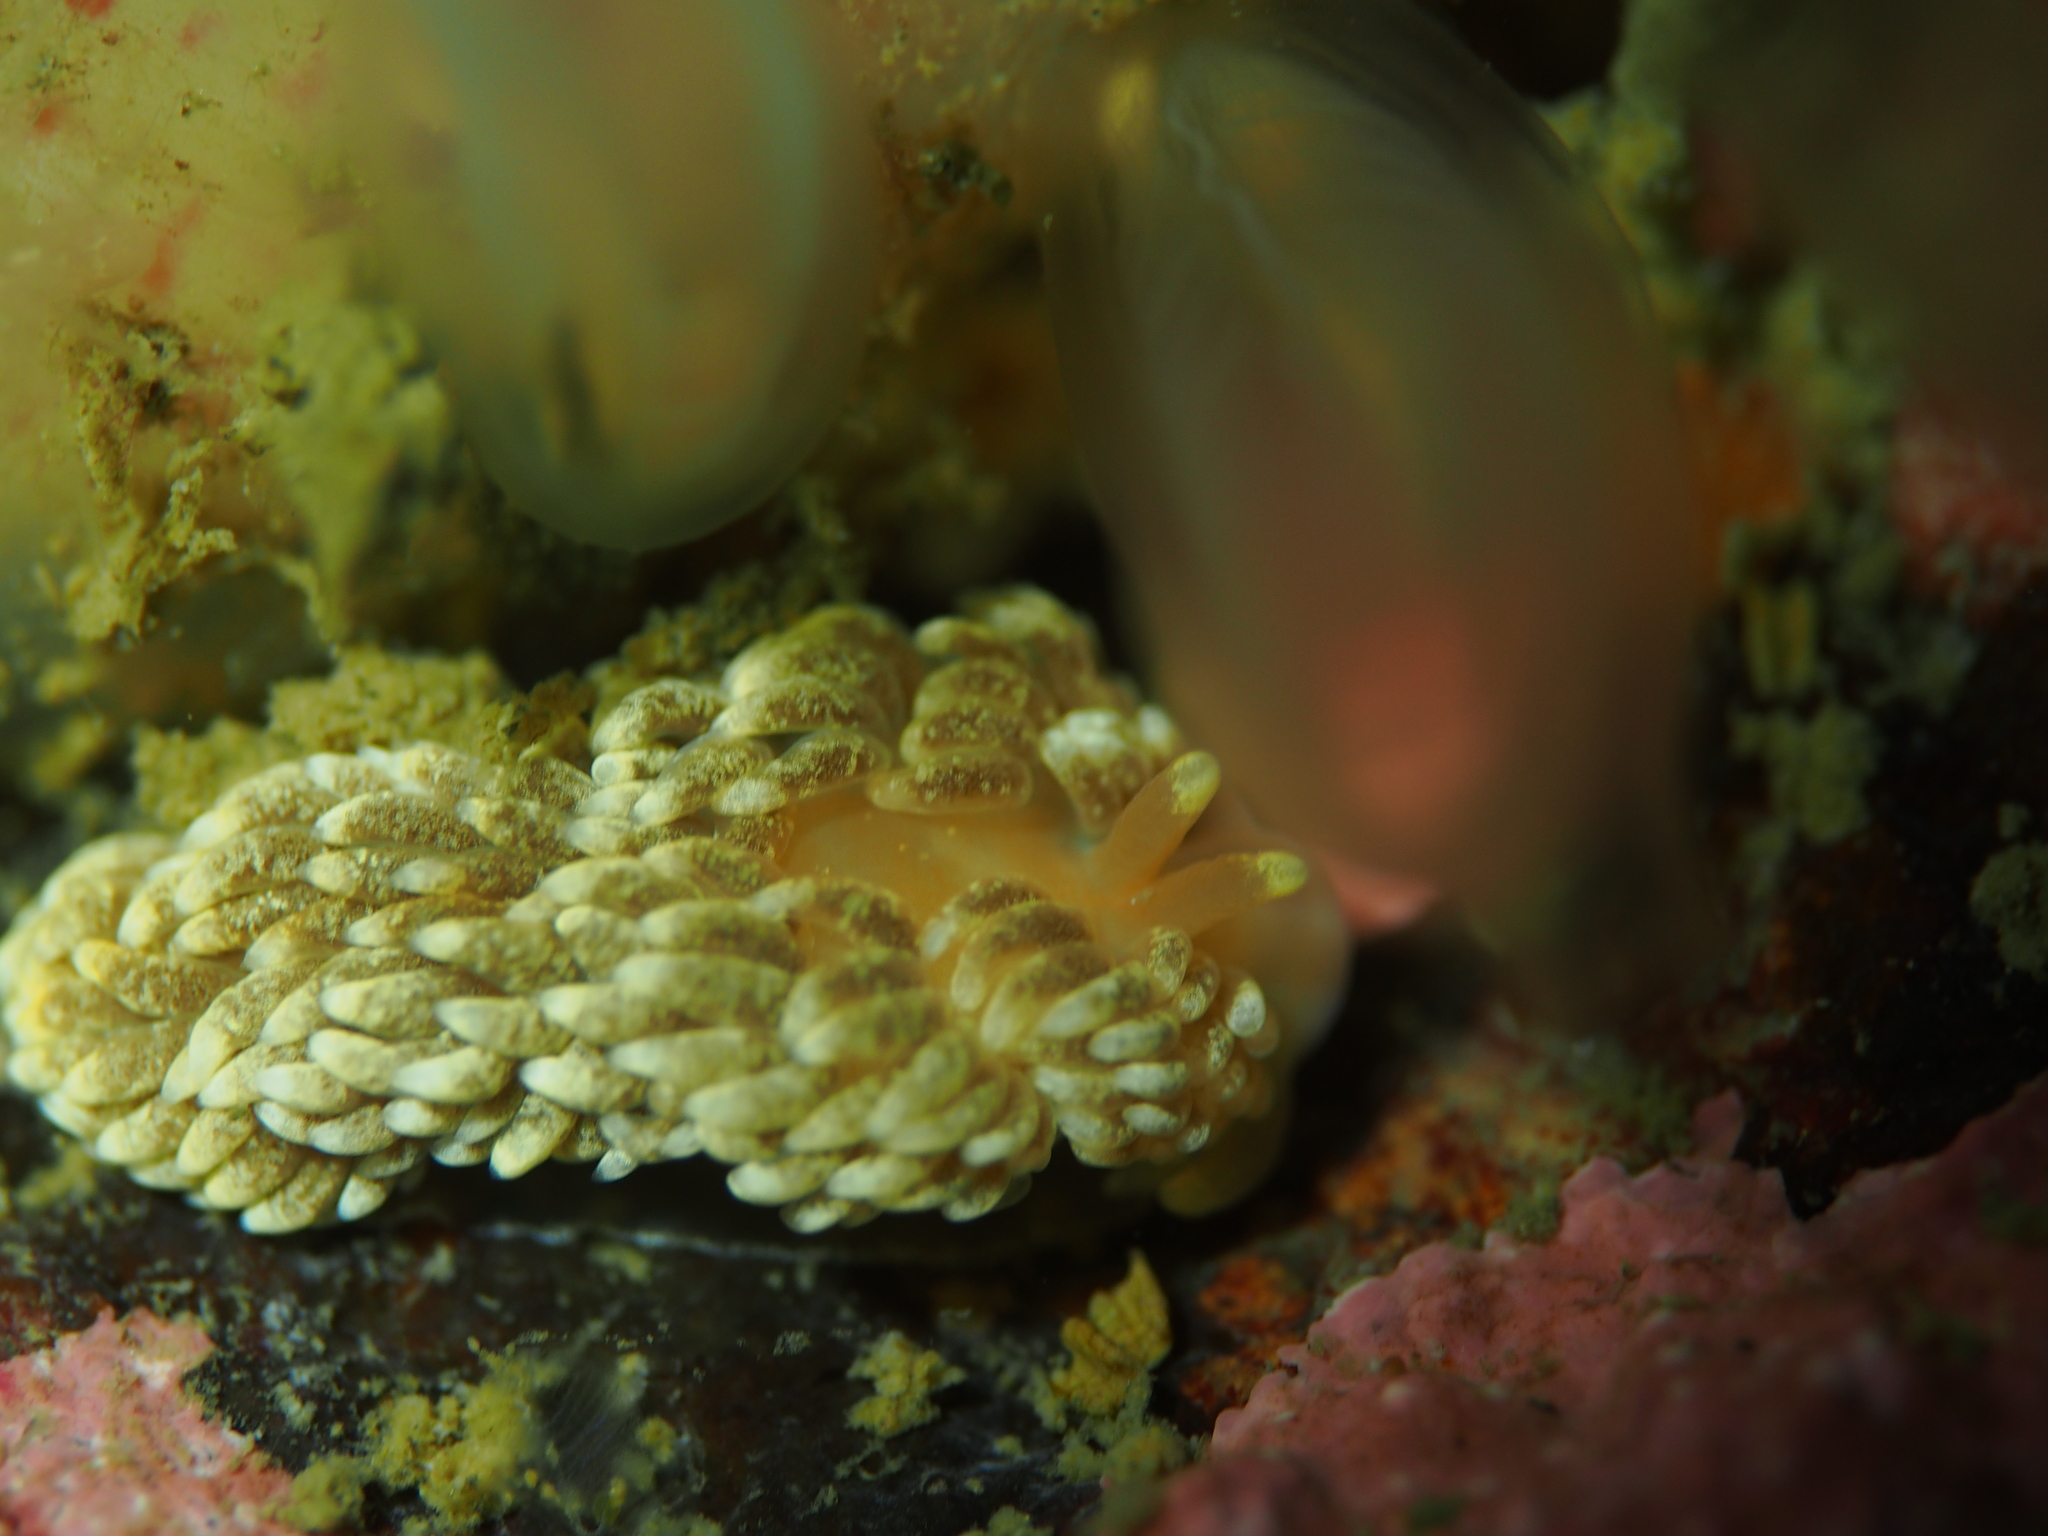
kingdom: Animalia
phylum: Mollusca
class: Gastropoda
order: Nudibranchia
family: Aeolidiidae
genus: Aeolidiella
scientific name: Aeolidiella glauca
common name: Orange-brown aeolid
